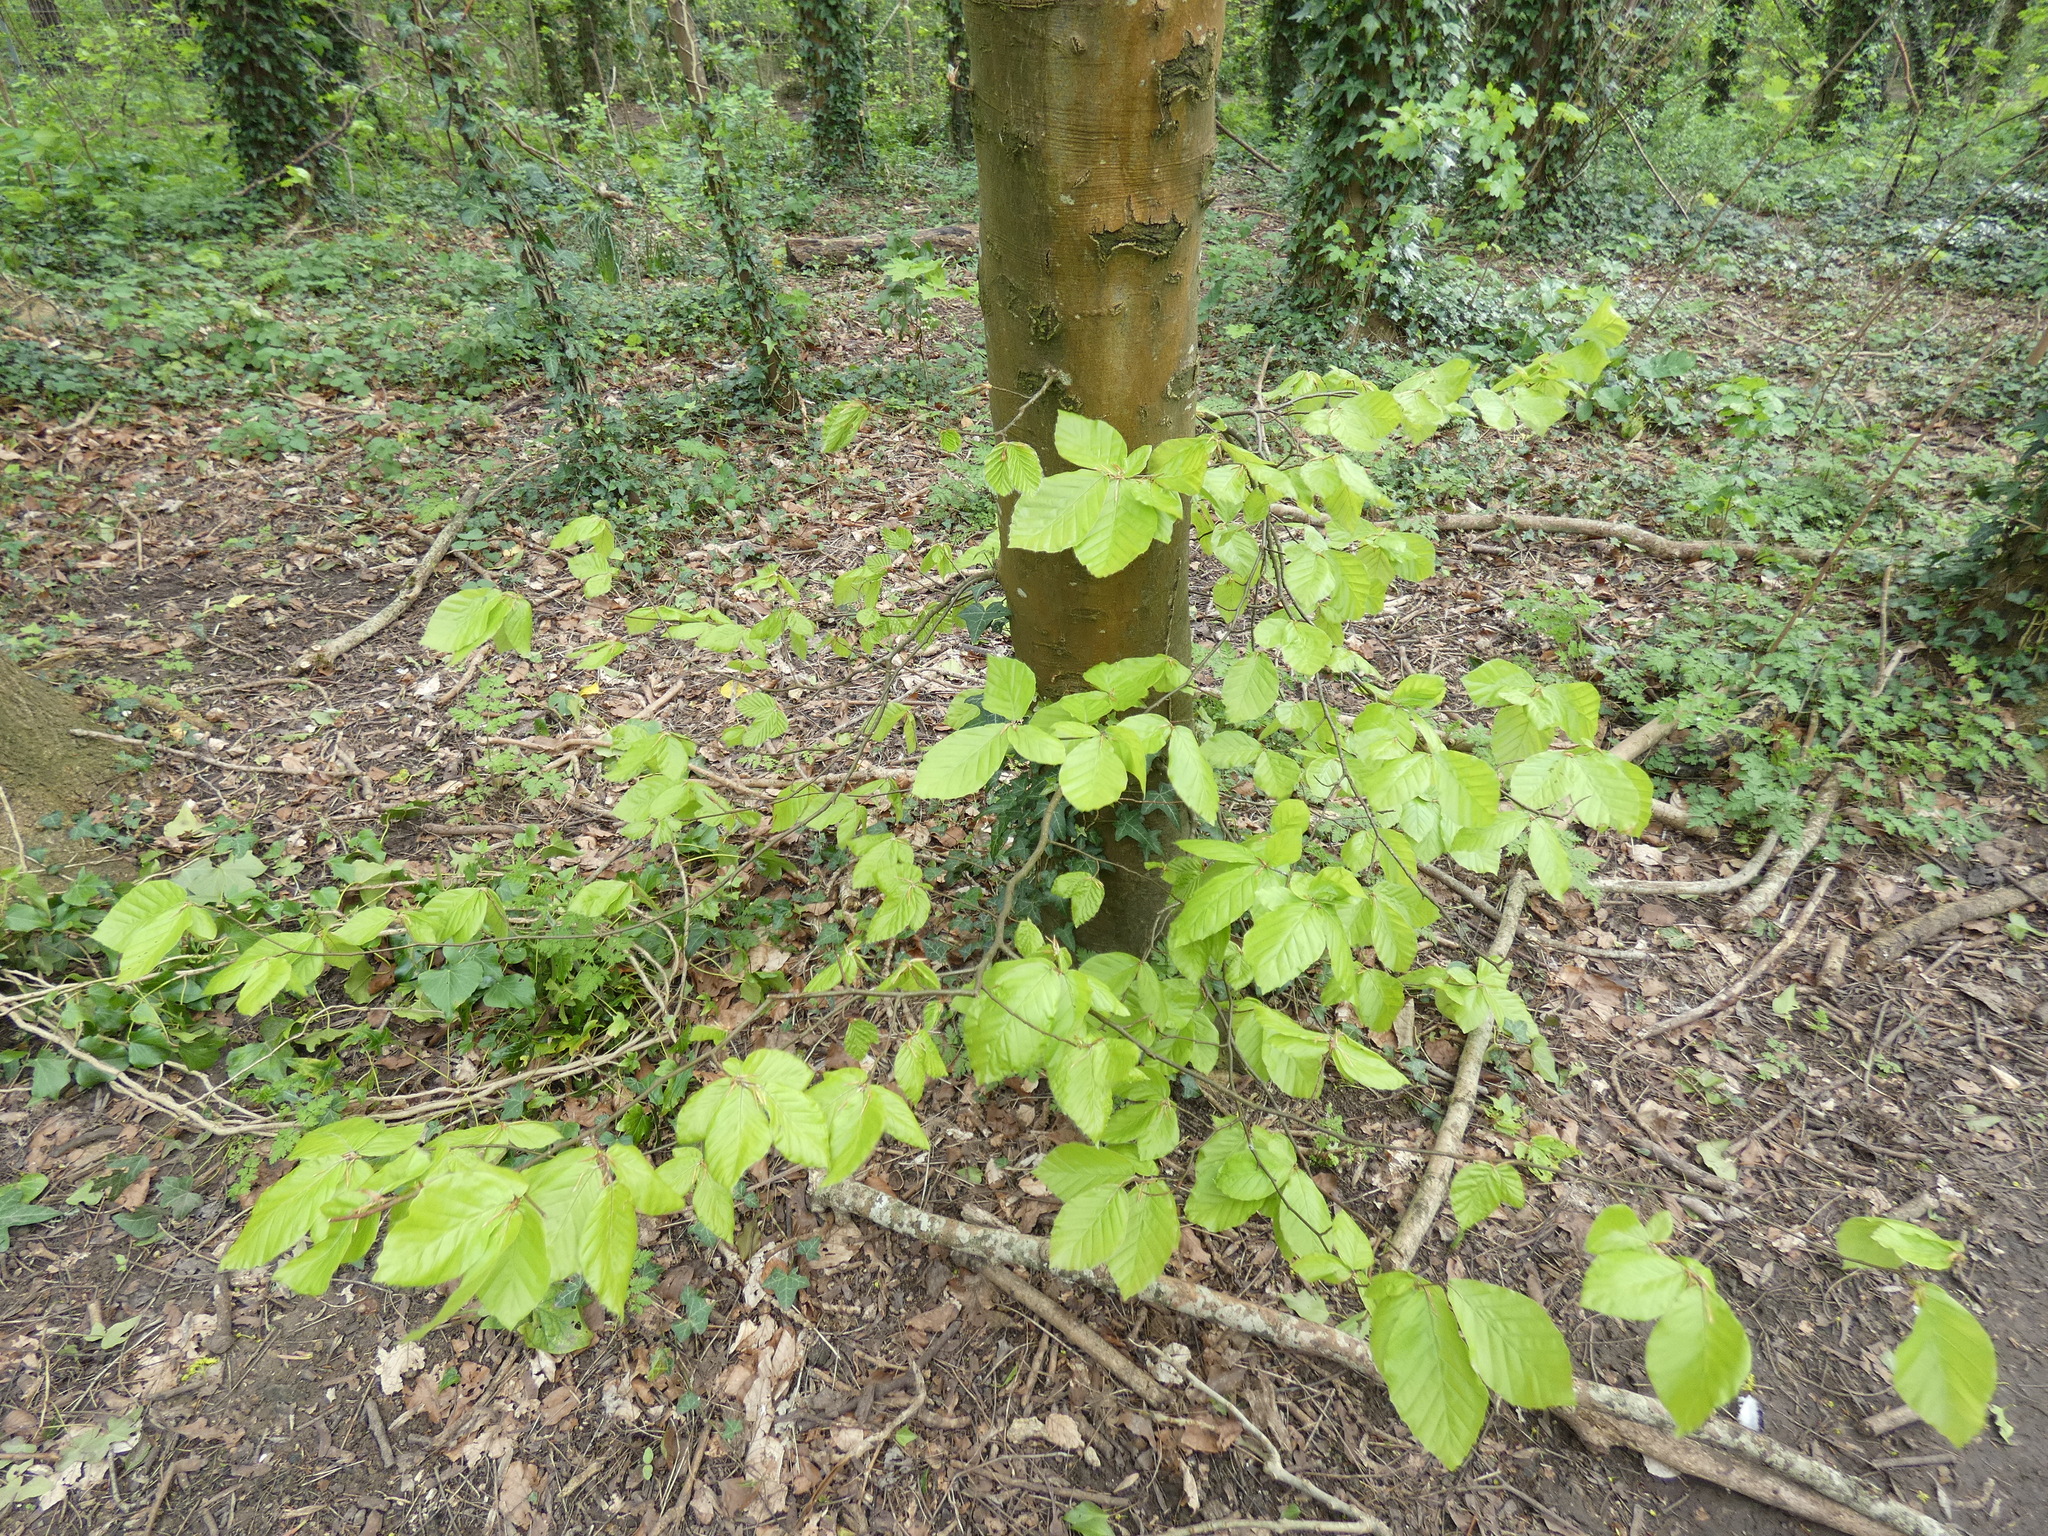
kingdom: Plantae
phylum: Tracheophyta
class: Magnoliopsida
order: Fagales
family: Fagaceae
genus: Fagus
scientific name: Fagus sylvatica
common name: Beech
